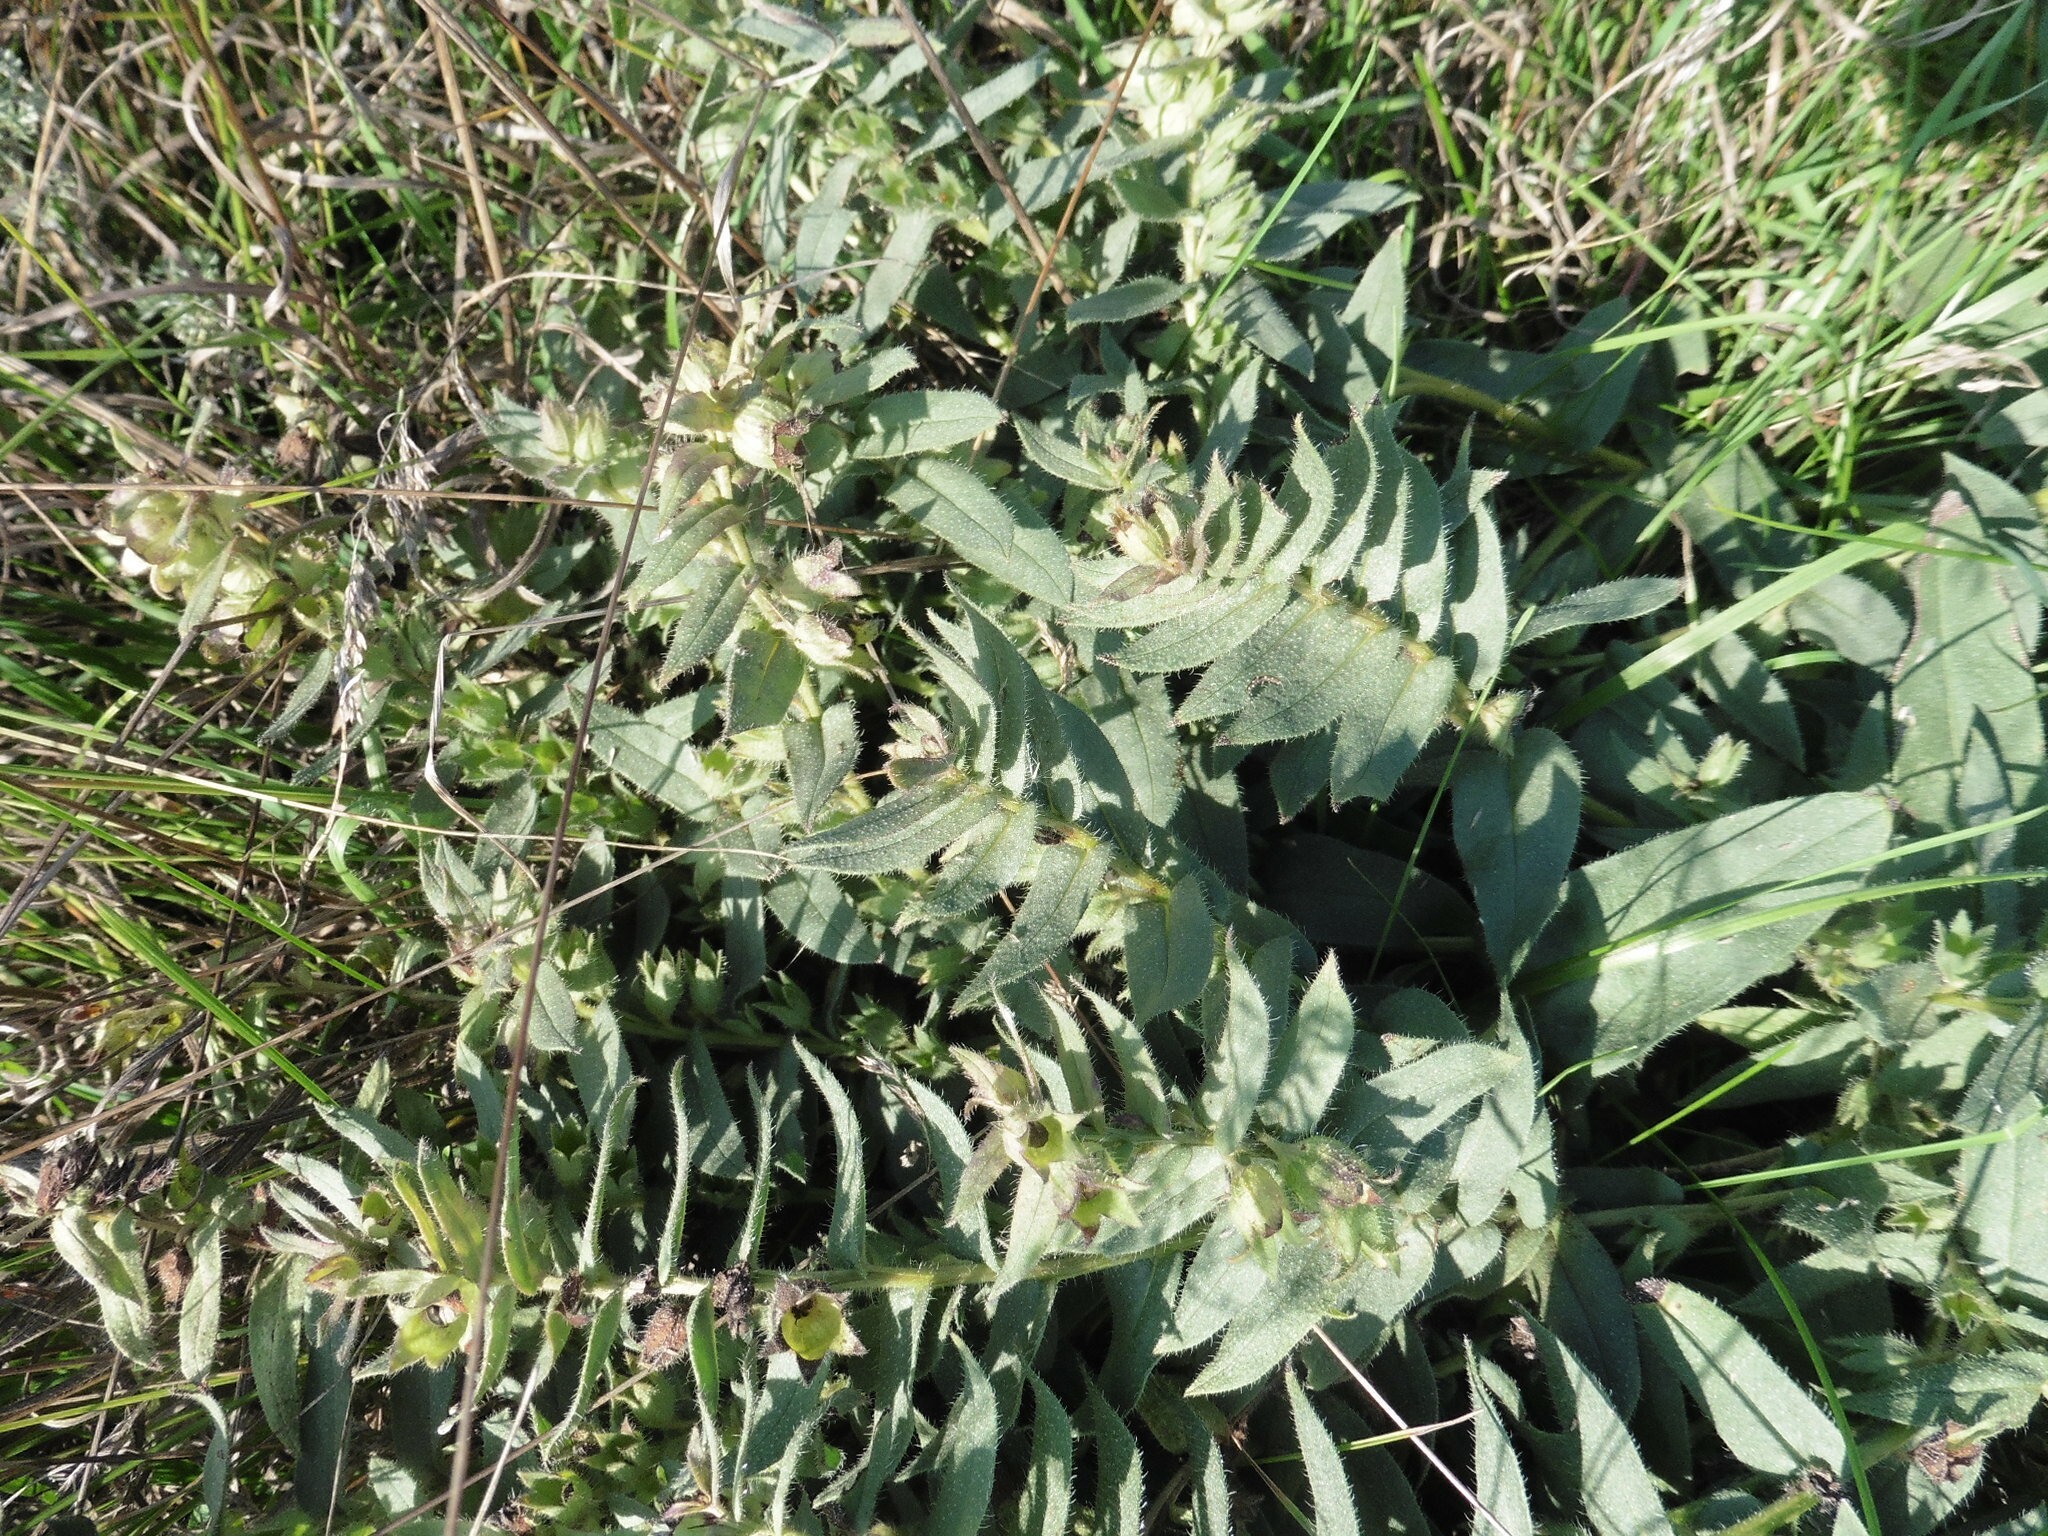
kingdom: Plantae
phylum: Tracheophyta
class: Magnoliopsida
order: Boraginales
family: Boraginaceae
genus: Nonea
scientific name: Nonea pulla
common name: Brown nonea
